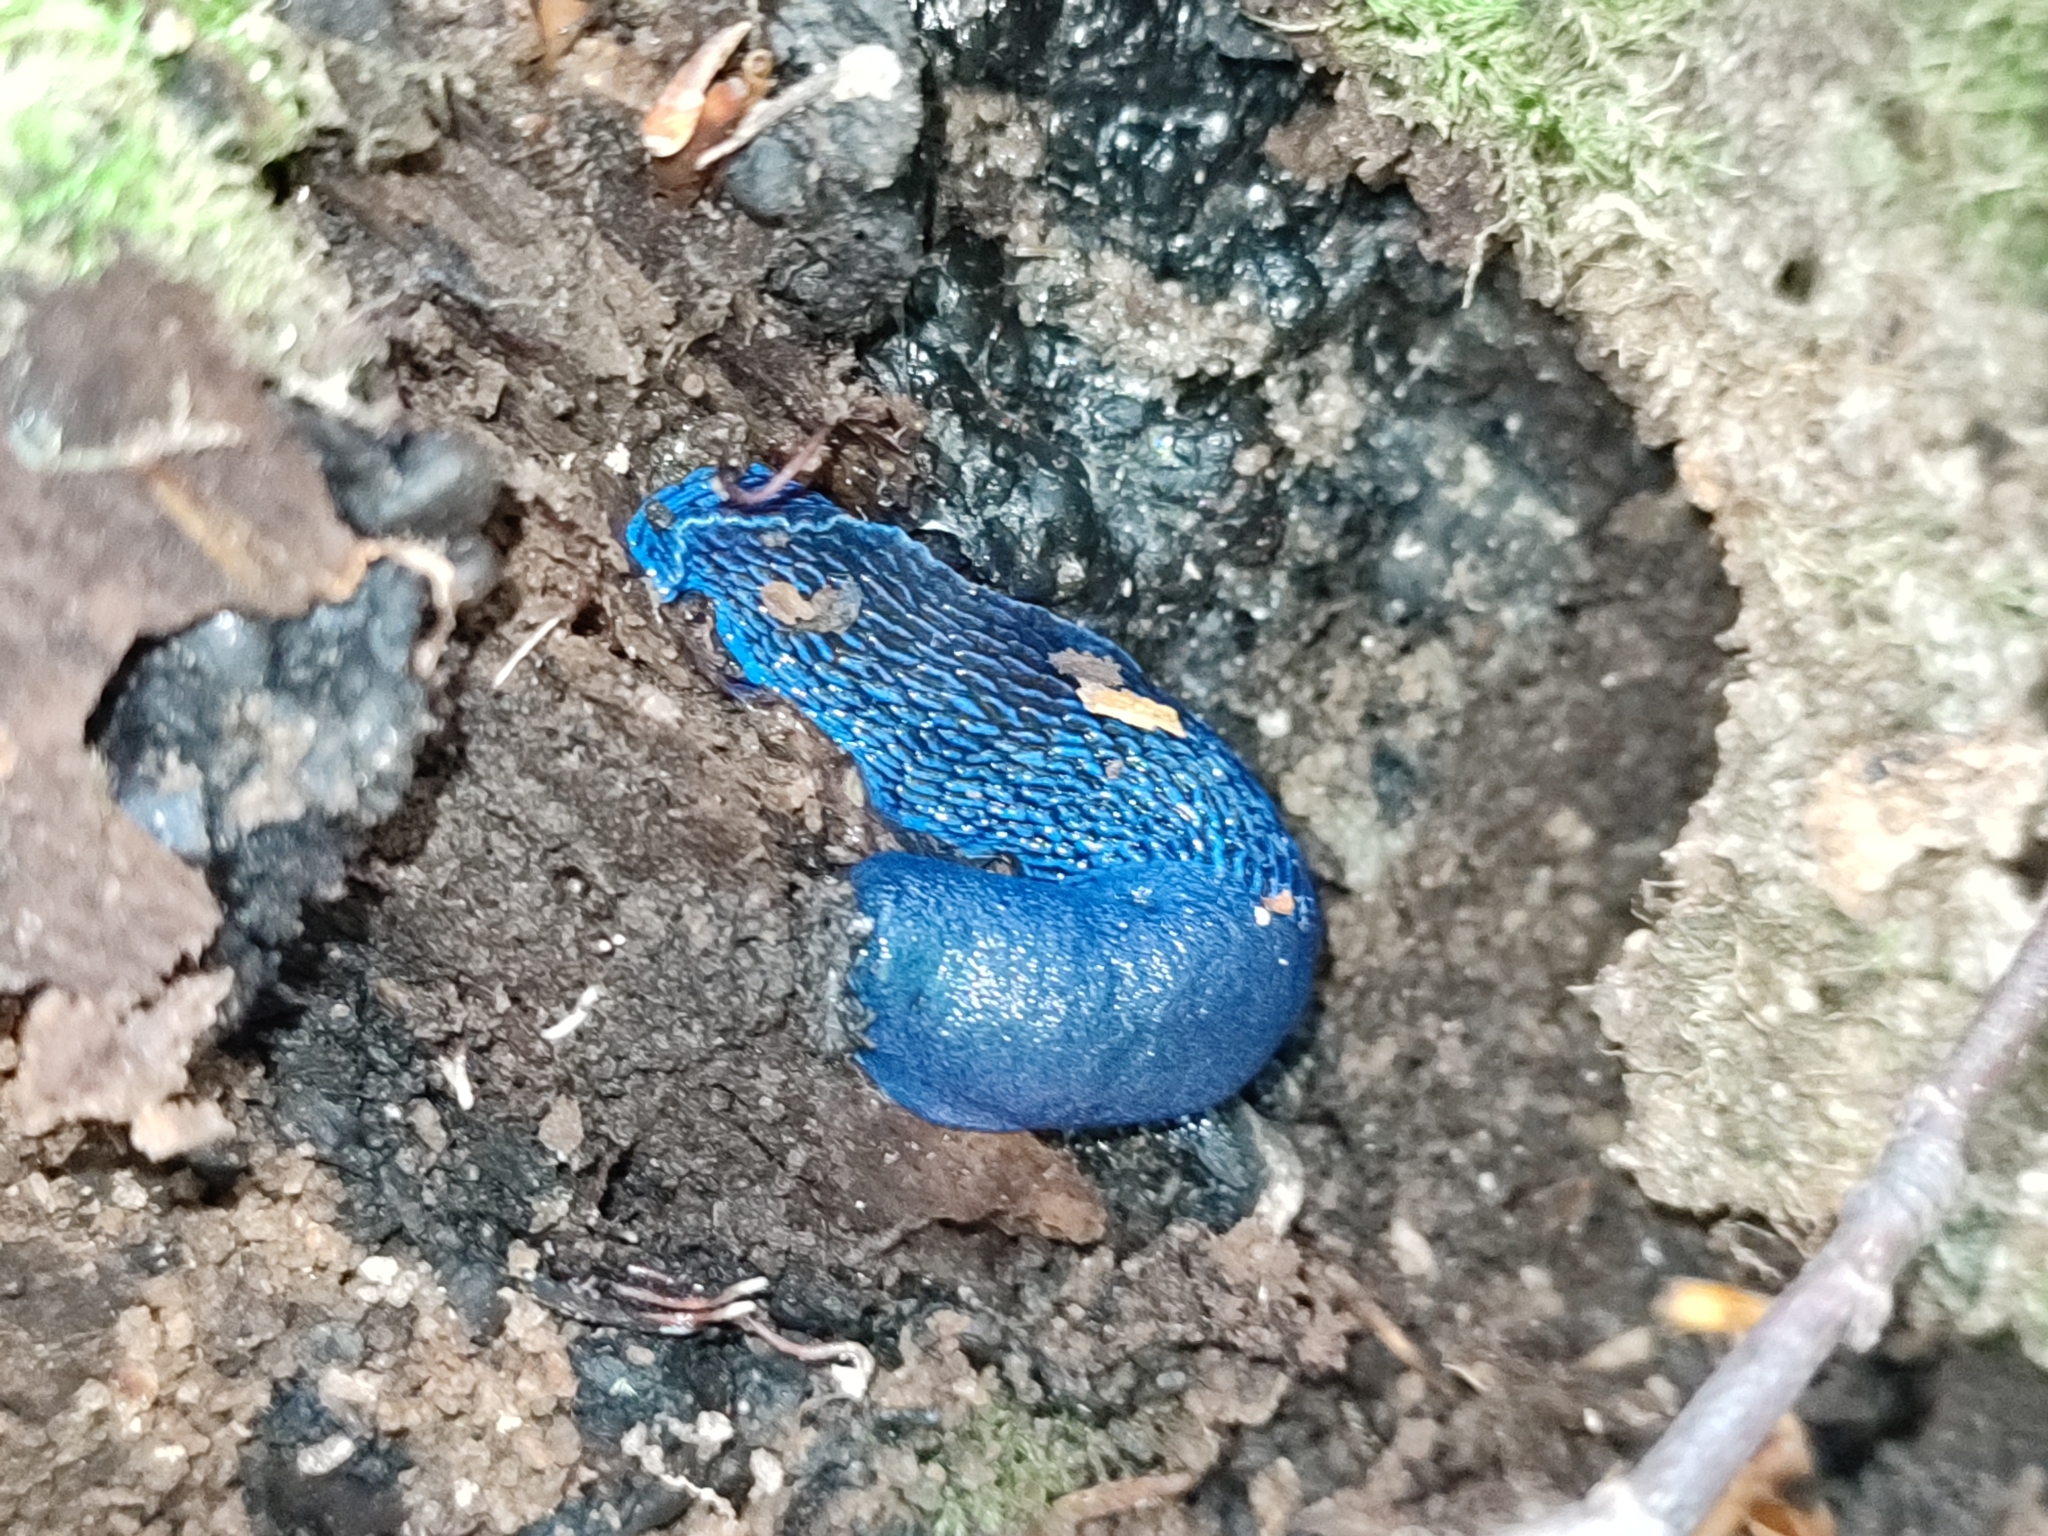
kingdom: Animalia
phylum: Mollusca
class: Gastropoda
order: Stylommatophora
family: Limacidae
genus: Bielzia
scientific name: Bielzia coerulans
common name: Carpathian blue slug
